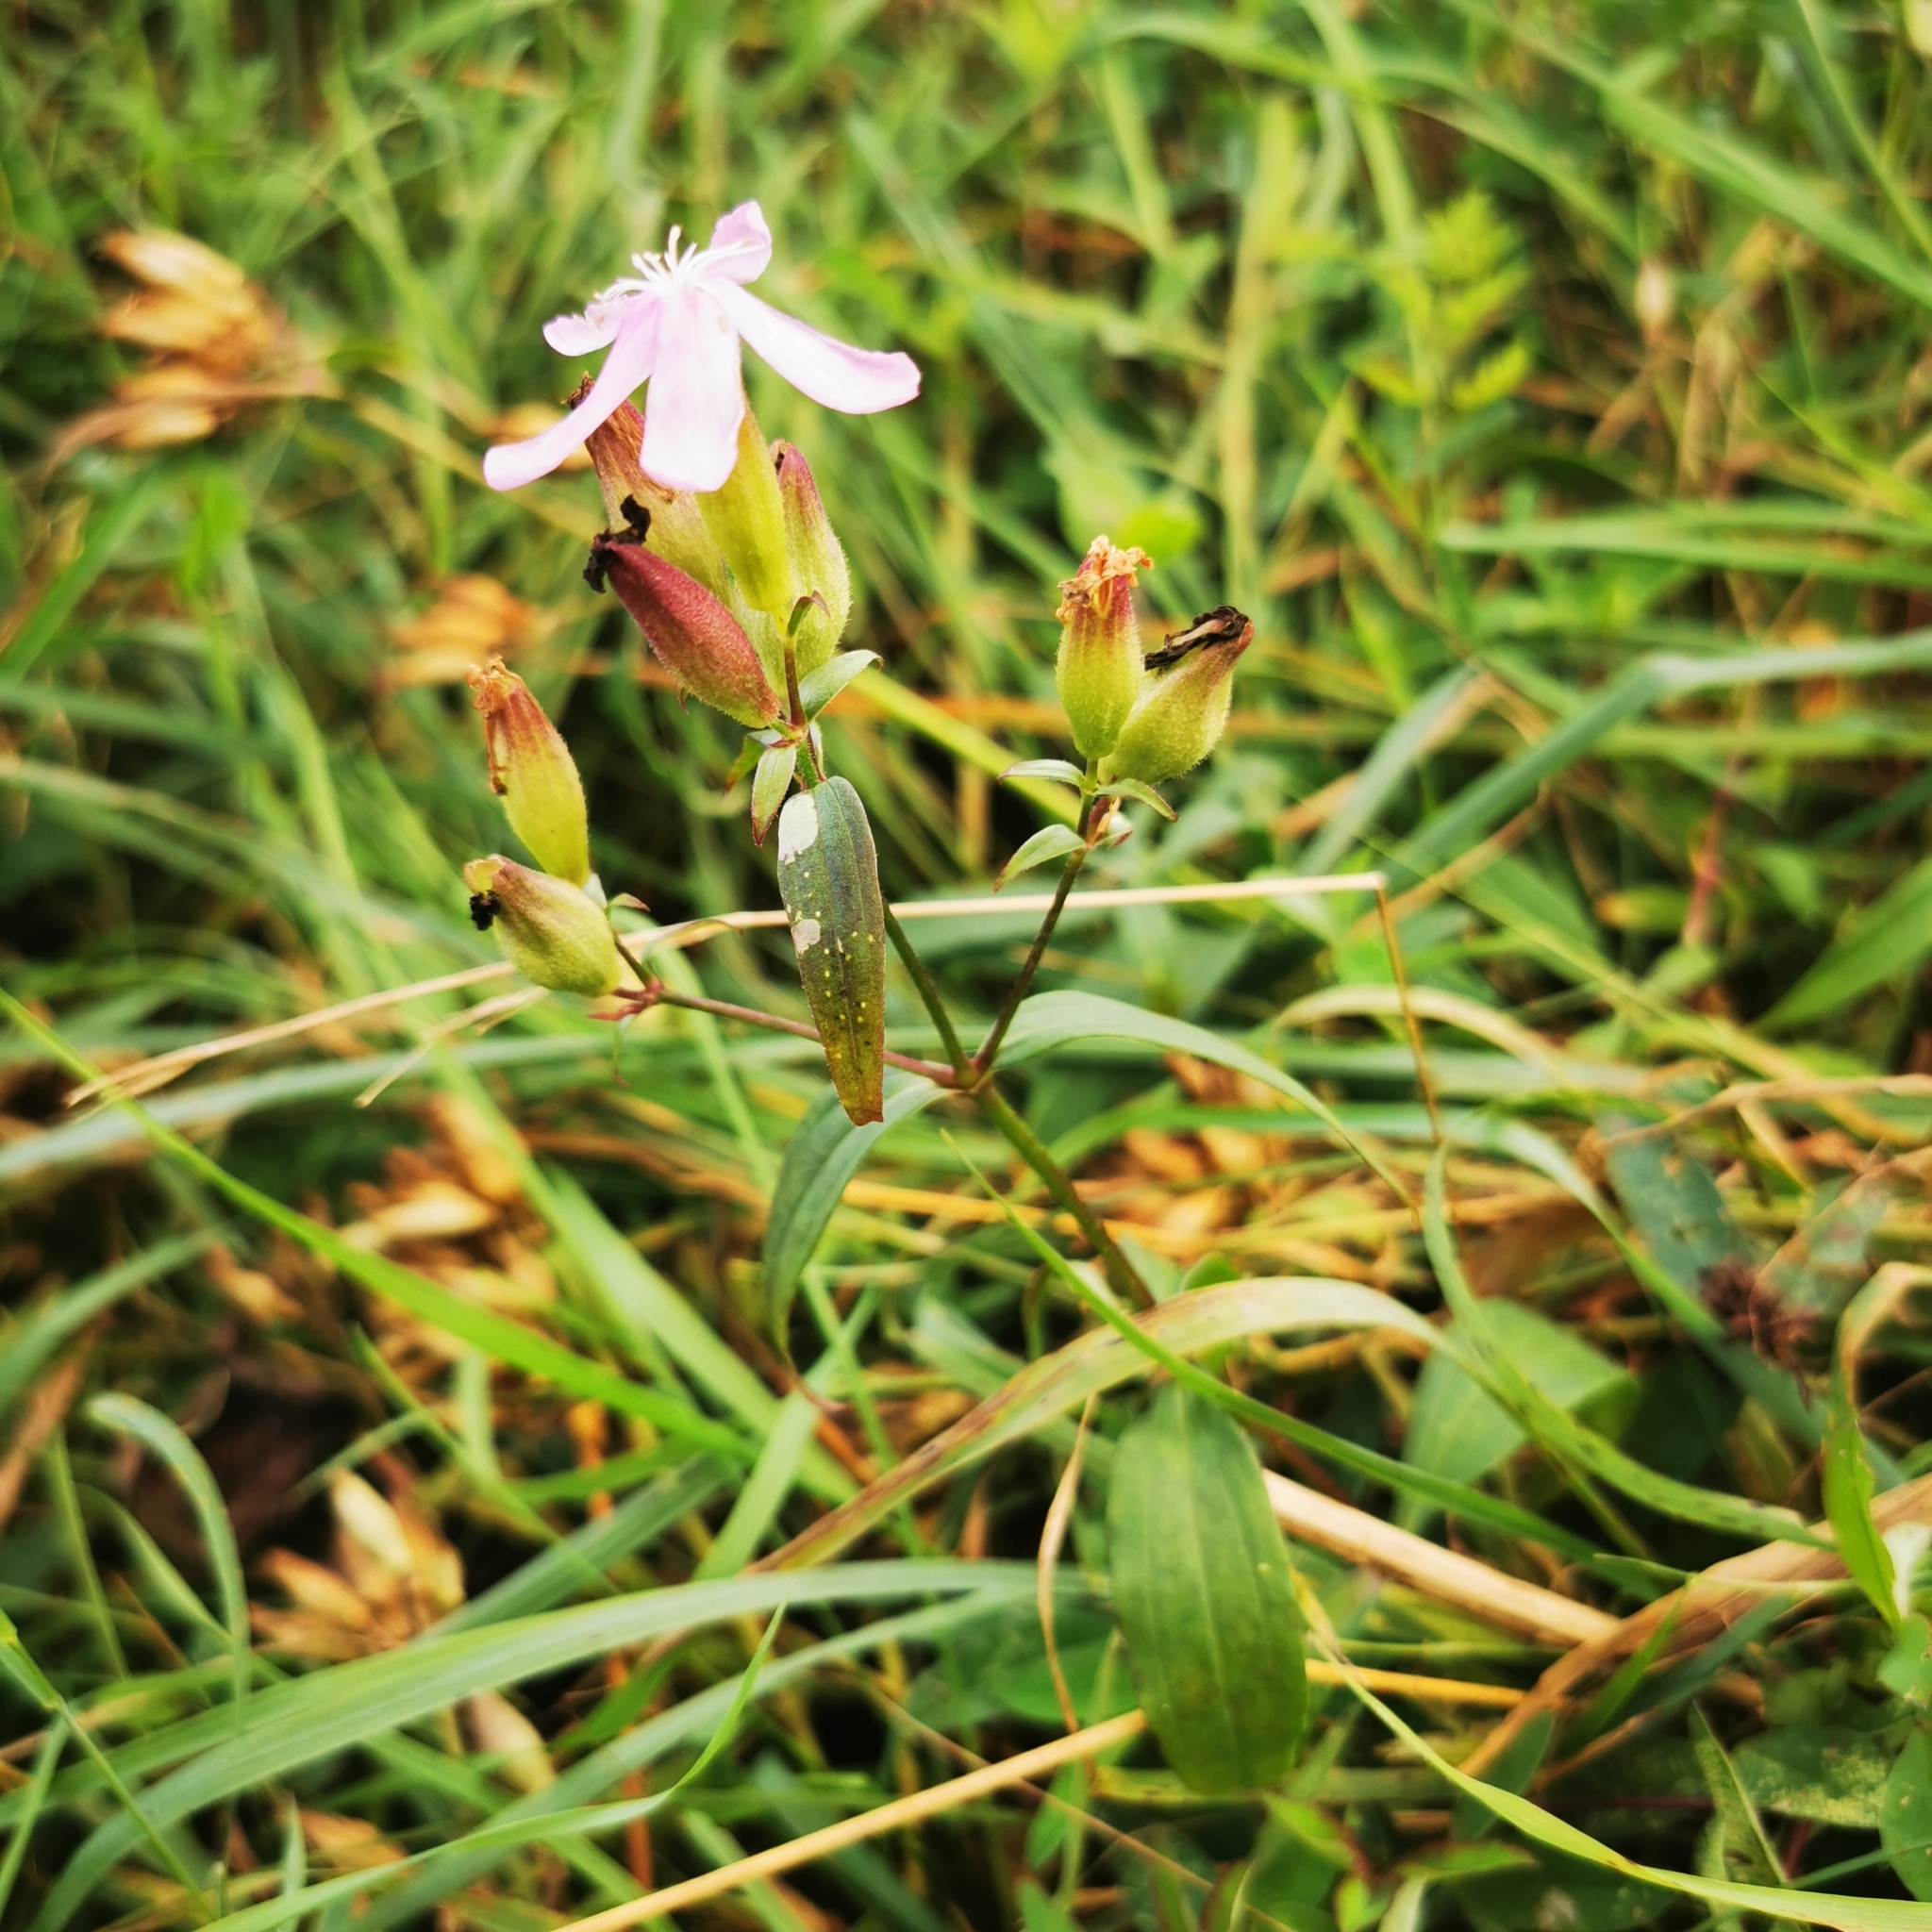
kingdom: Plantae
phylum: Tracheophyta
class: Magnoliopsida
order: Caryophyllales
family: Caryophyllaceae
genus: Saponaria
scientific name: Saponaria officinalis
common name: Soapwort
